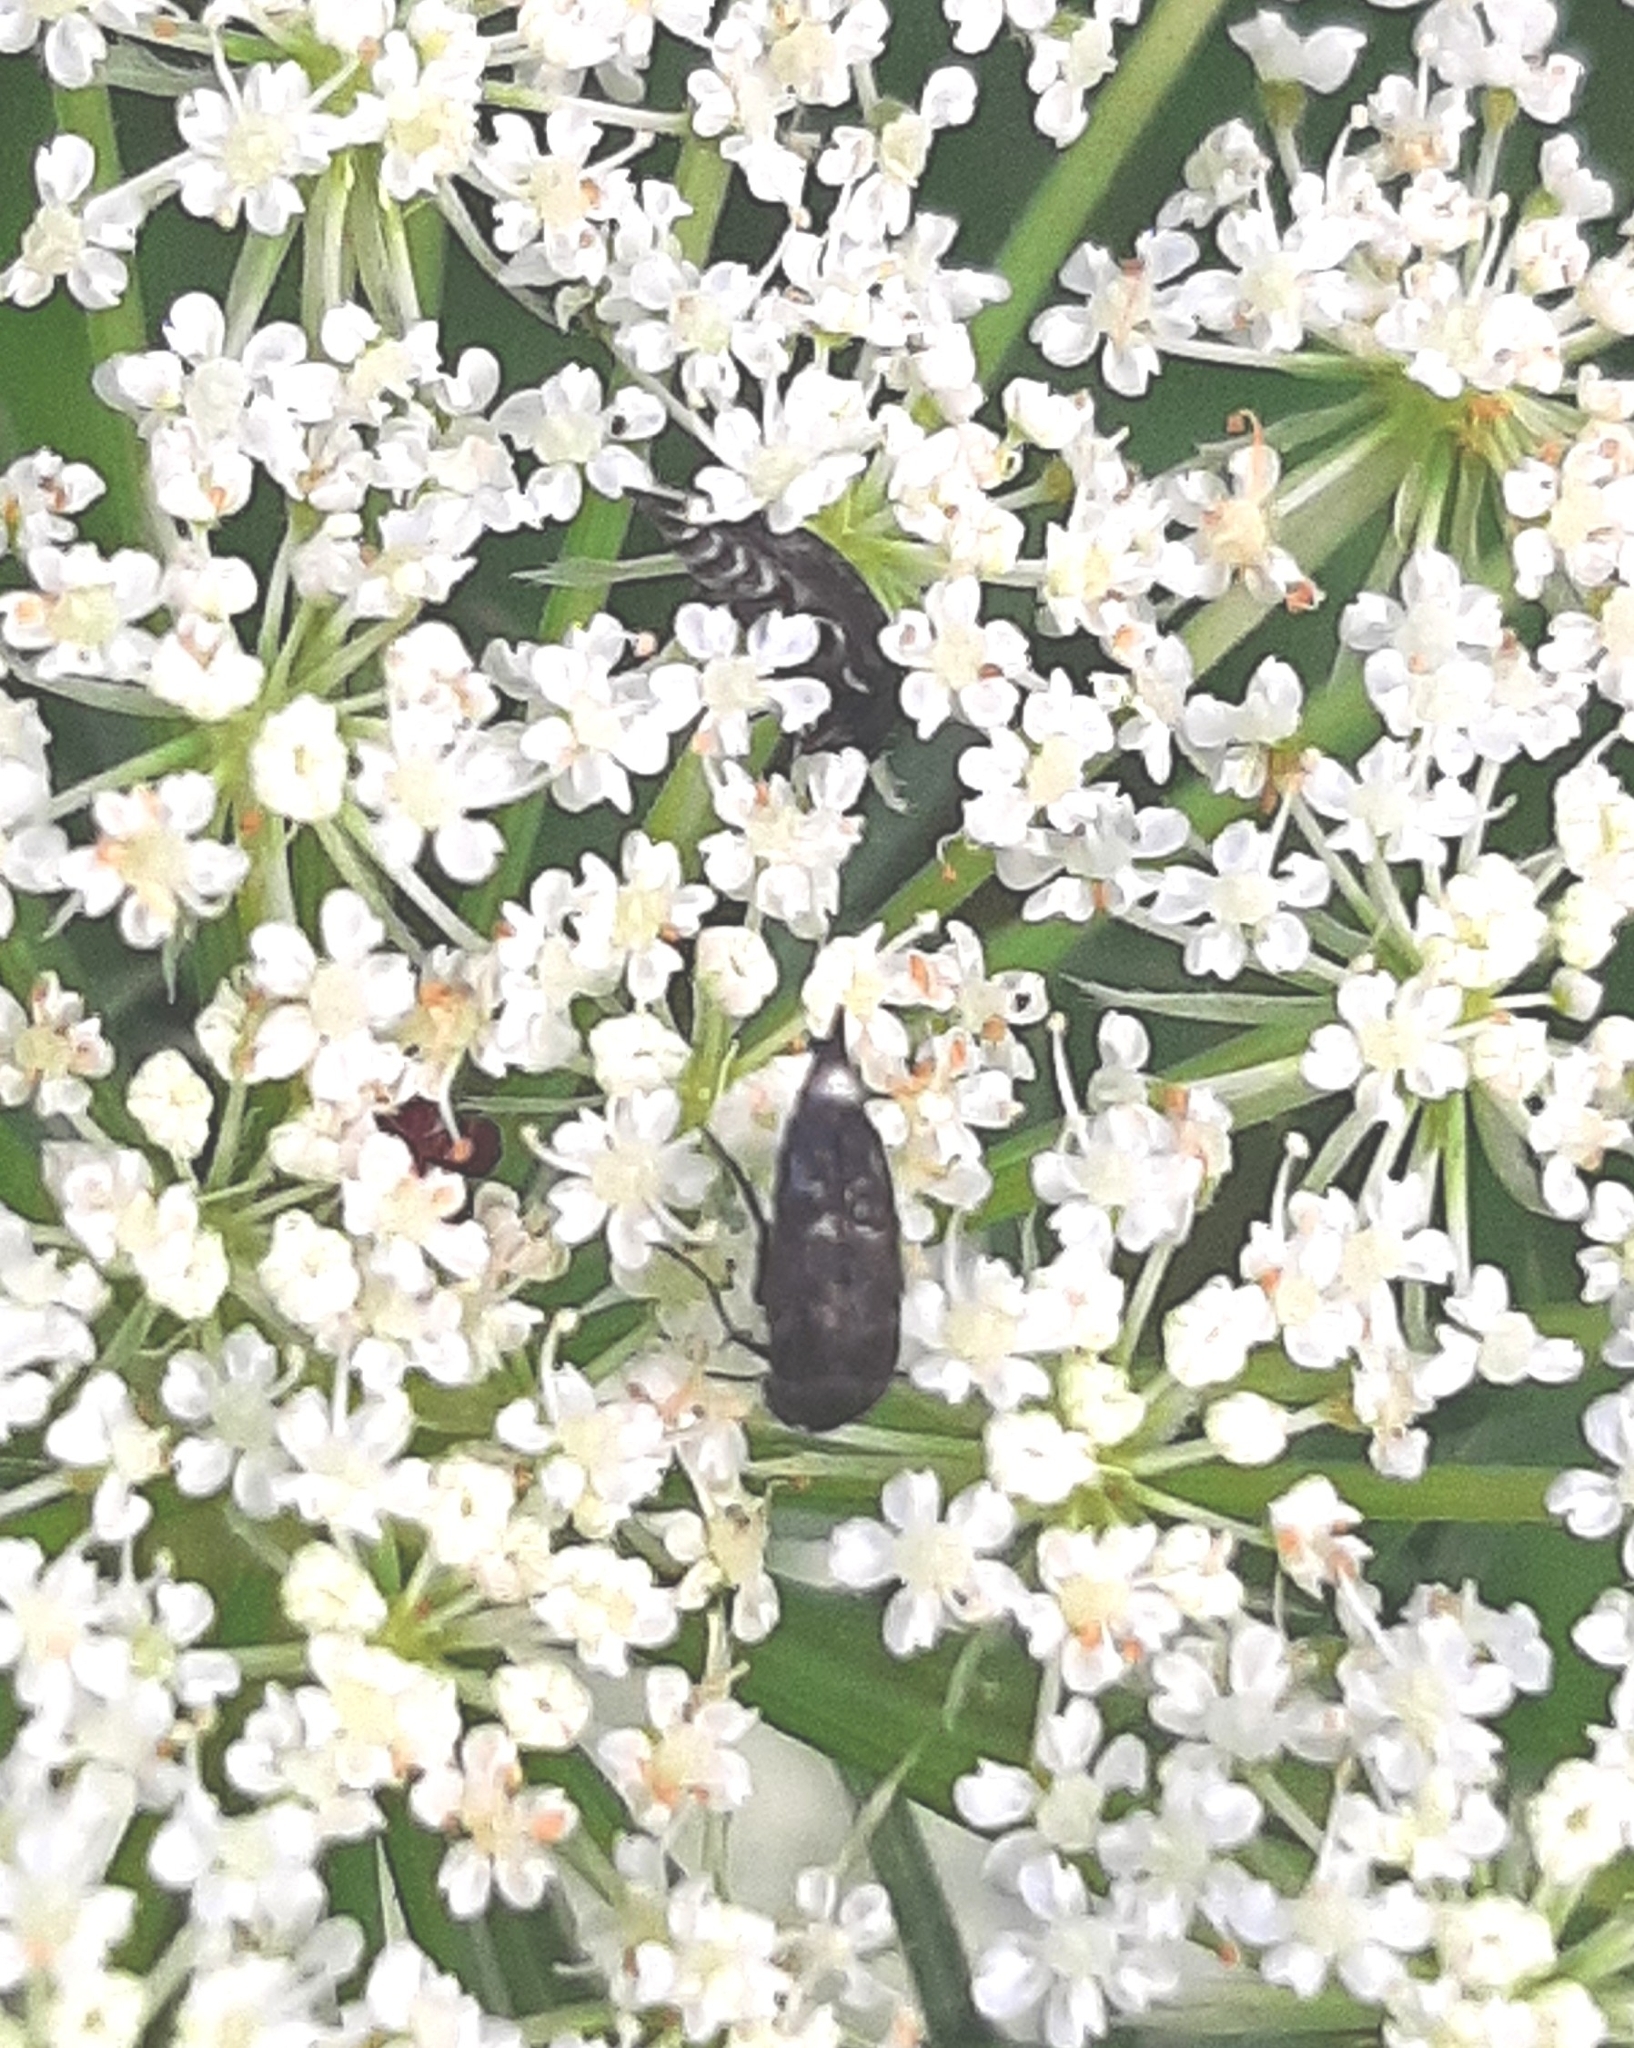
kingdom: Animalia
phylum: Arthropoda
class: Insecta
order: Coleoptera
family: Mordellidae
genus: Mordella
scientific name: Mordella marginata
